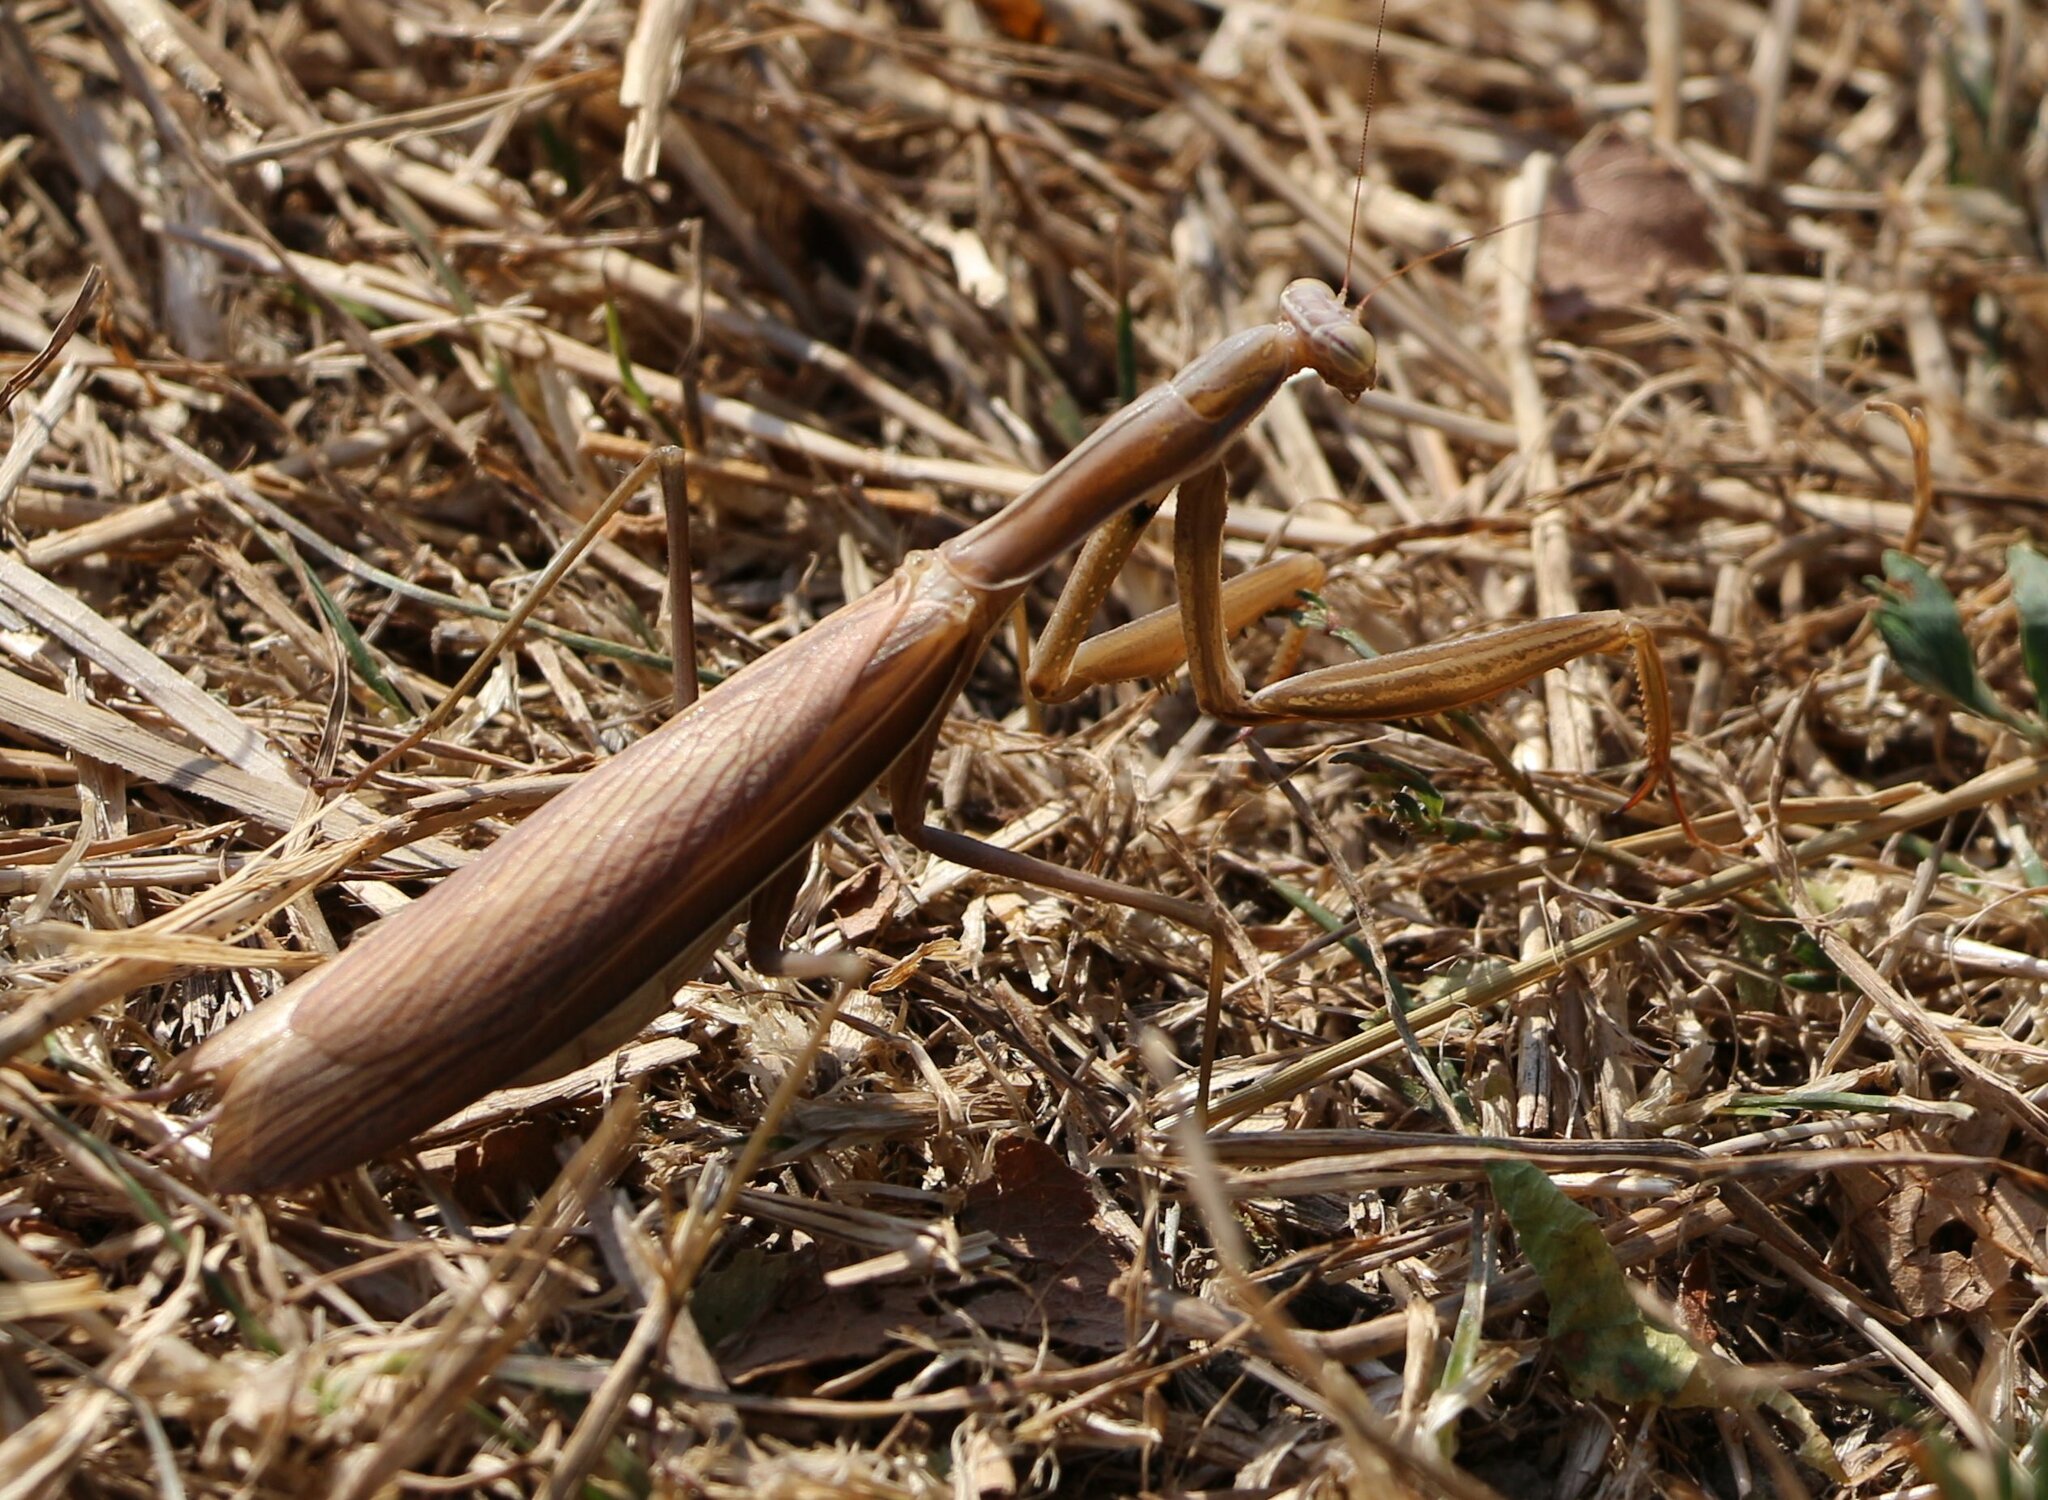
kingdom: Animalia
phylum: Arthropoda
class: Insecta
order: Mantodea
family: Mantidae
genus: Mantis
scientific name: Mantis religiosa
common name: Praying mantis
